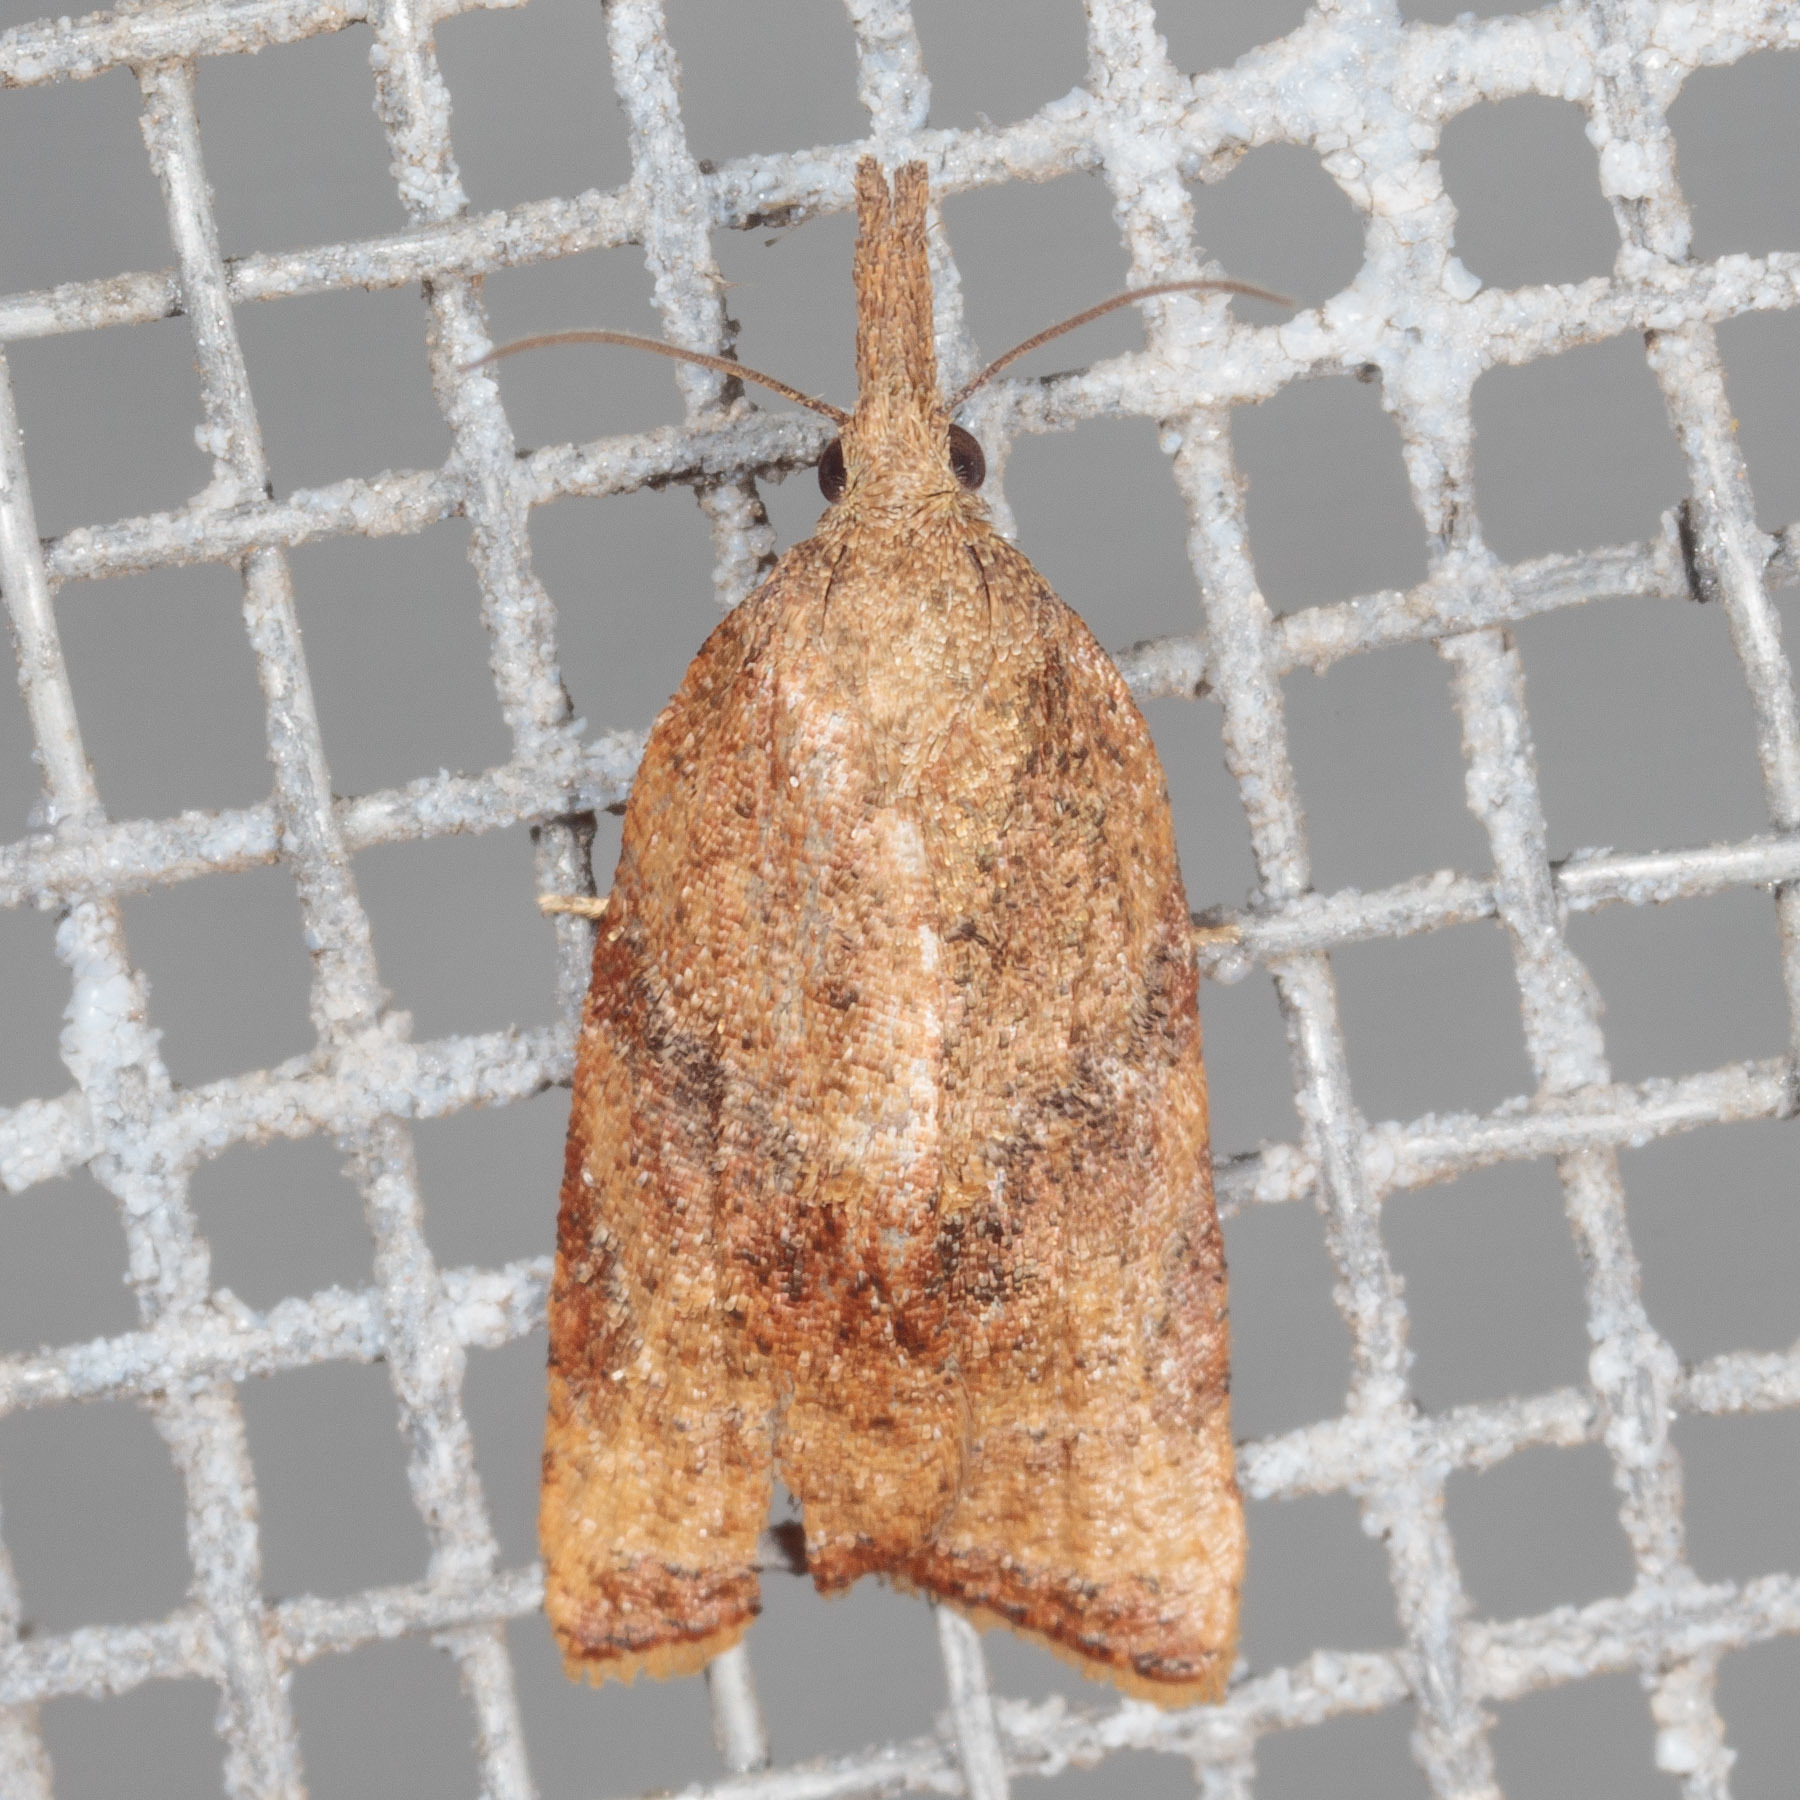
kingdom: Animalia
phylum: Arthropoda
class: Insecta
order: Lepidoptera
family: Tortricidae
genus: Platynota
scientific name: Platynota stultana
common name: Omnivorous leafroller
